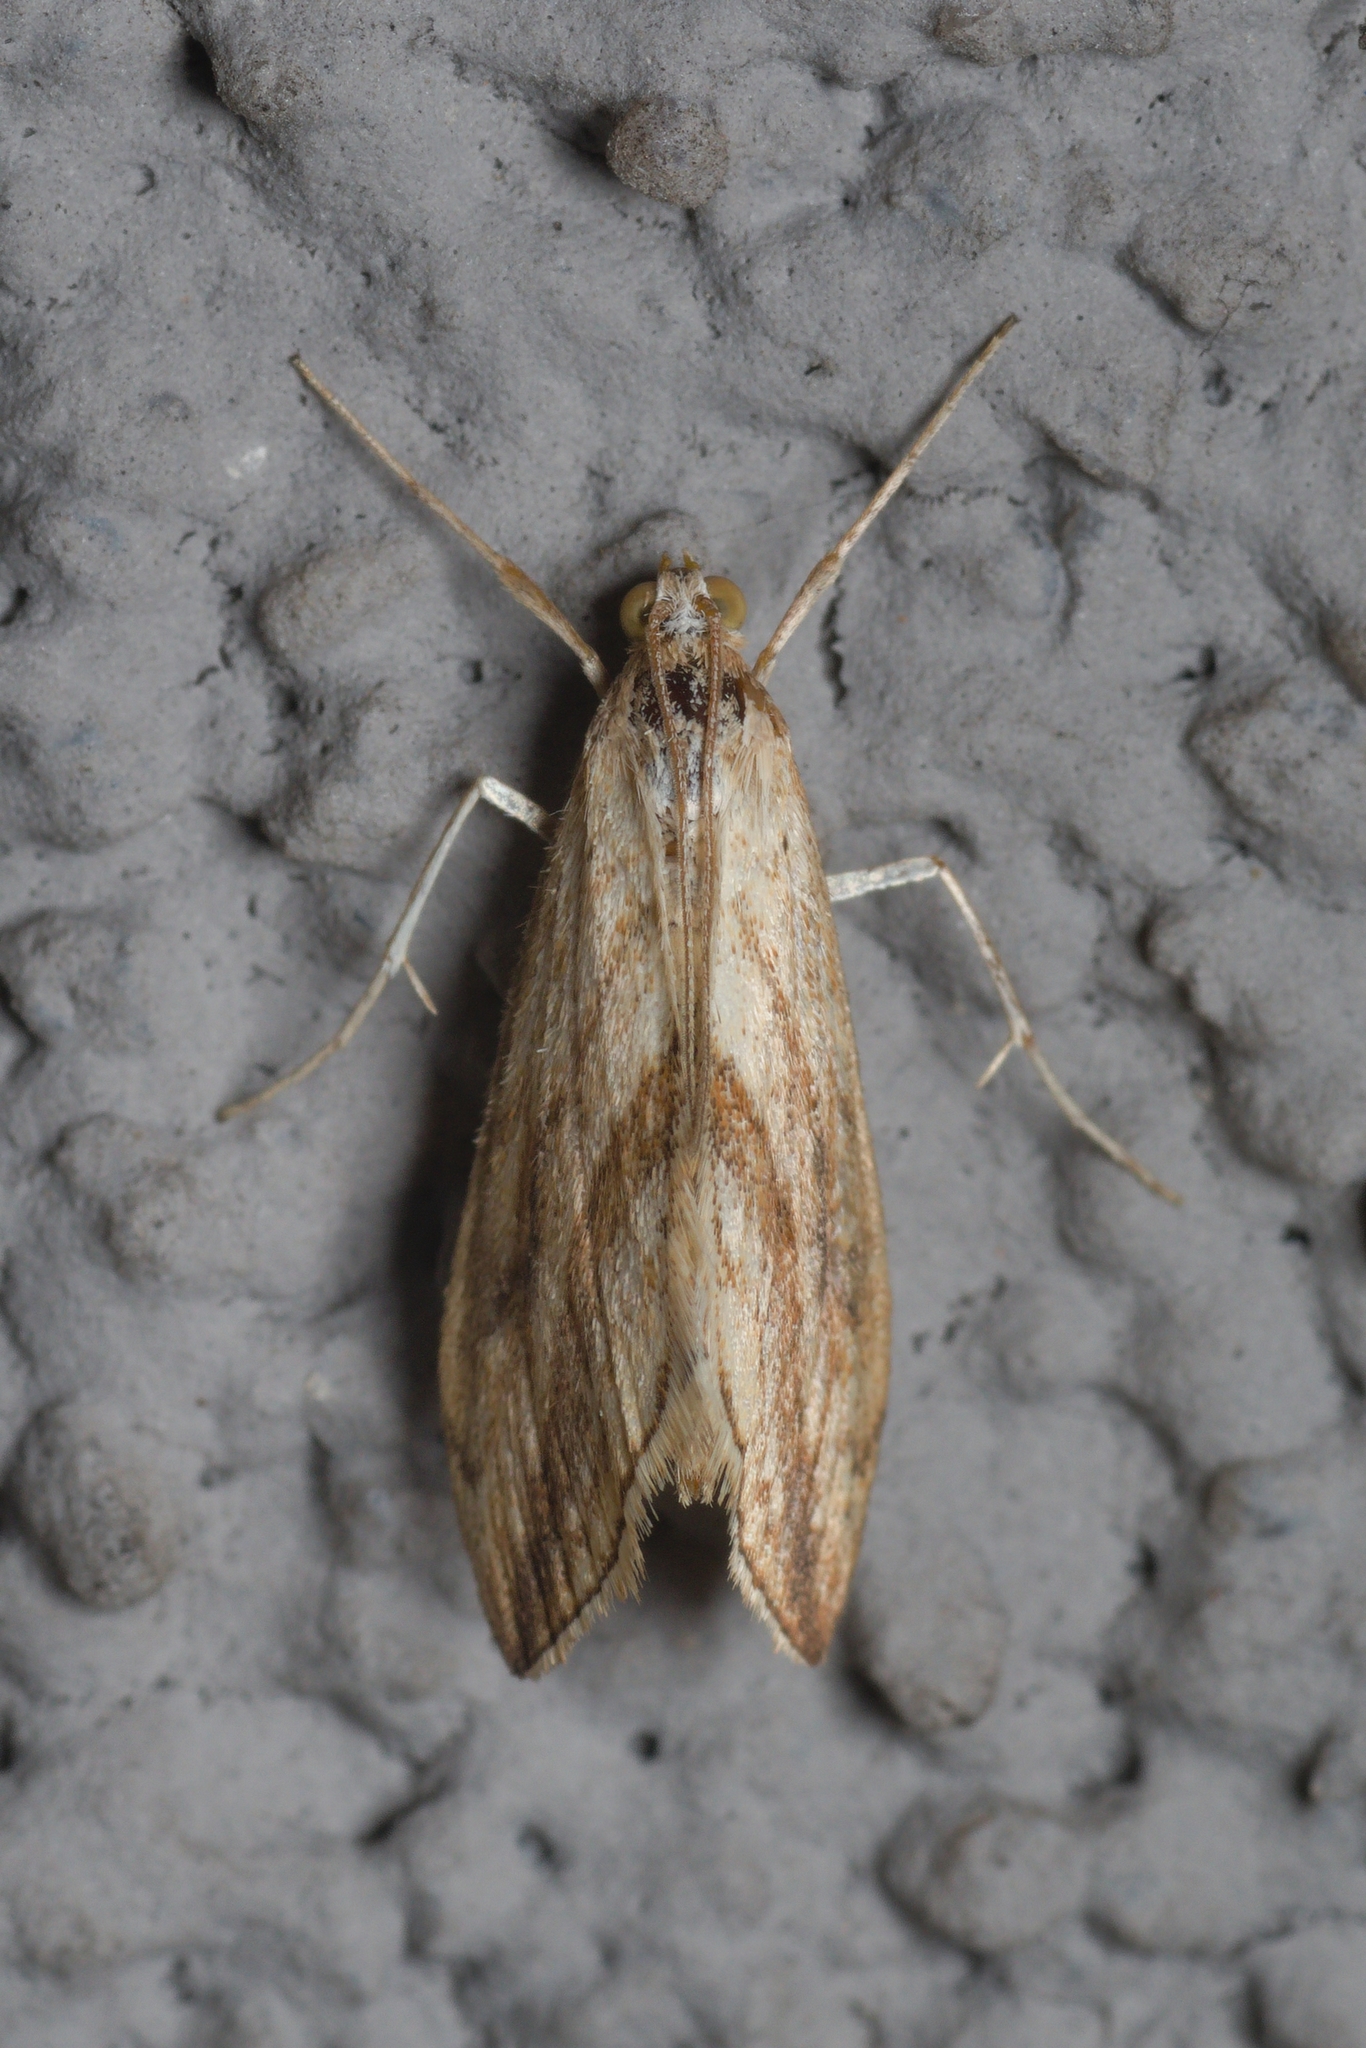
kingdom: Animalia
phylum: Arthropoda
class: Insecta
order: Lepidoptera
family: Crambidae
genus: Evergestis
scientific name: Evergestis forficalis
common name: Garden pebble
